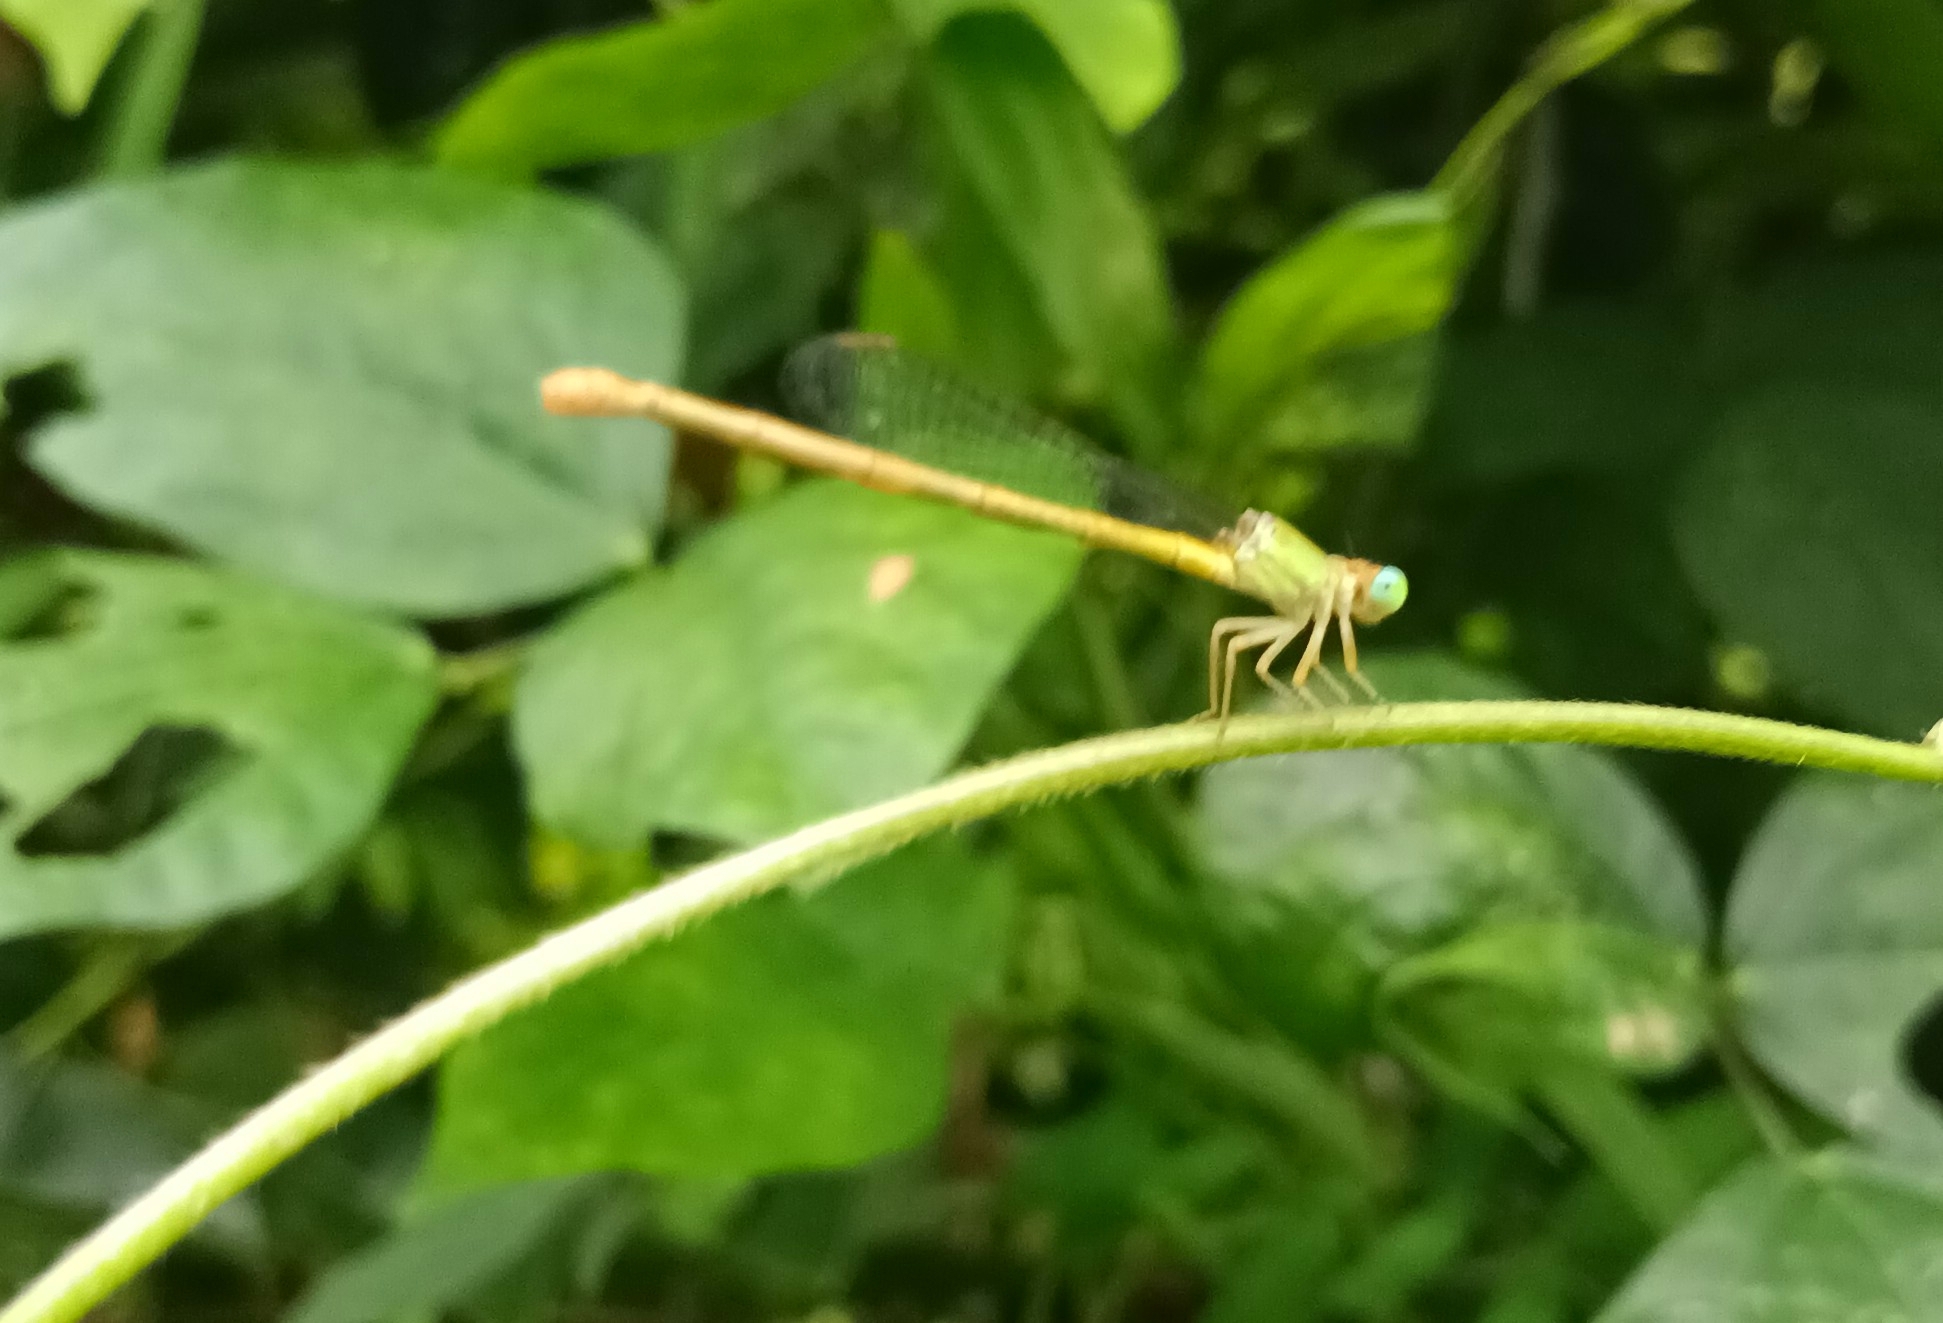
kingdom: Animalia
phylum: Arthropoda
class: Insecta
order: Odonata
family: Coenagrionidae
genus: Ceriagrion
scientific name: Ceriagrion coromandelianum
